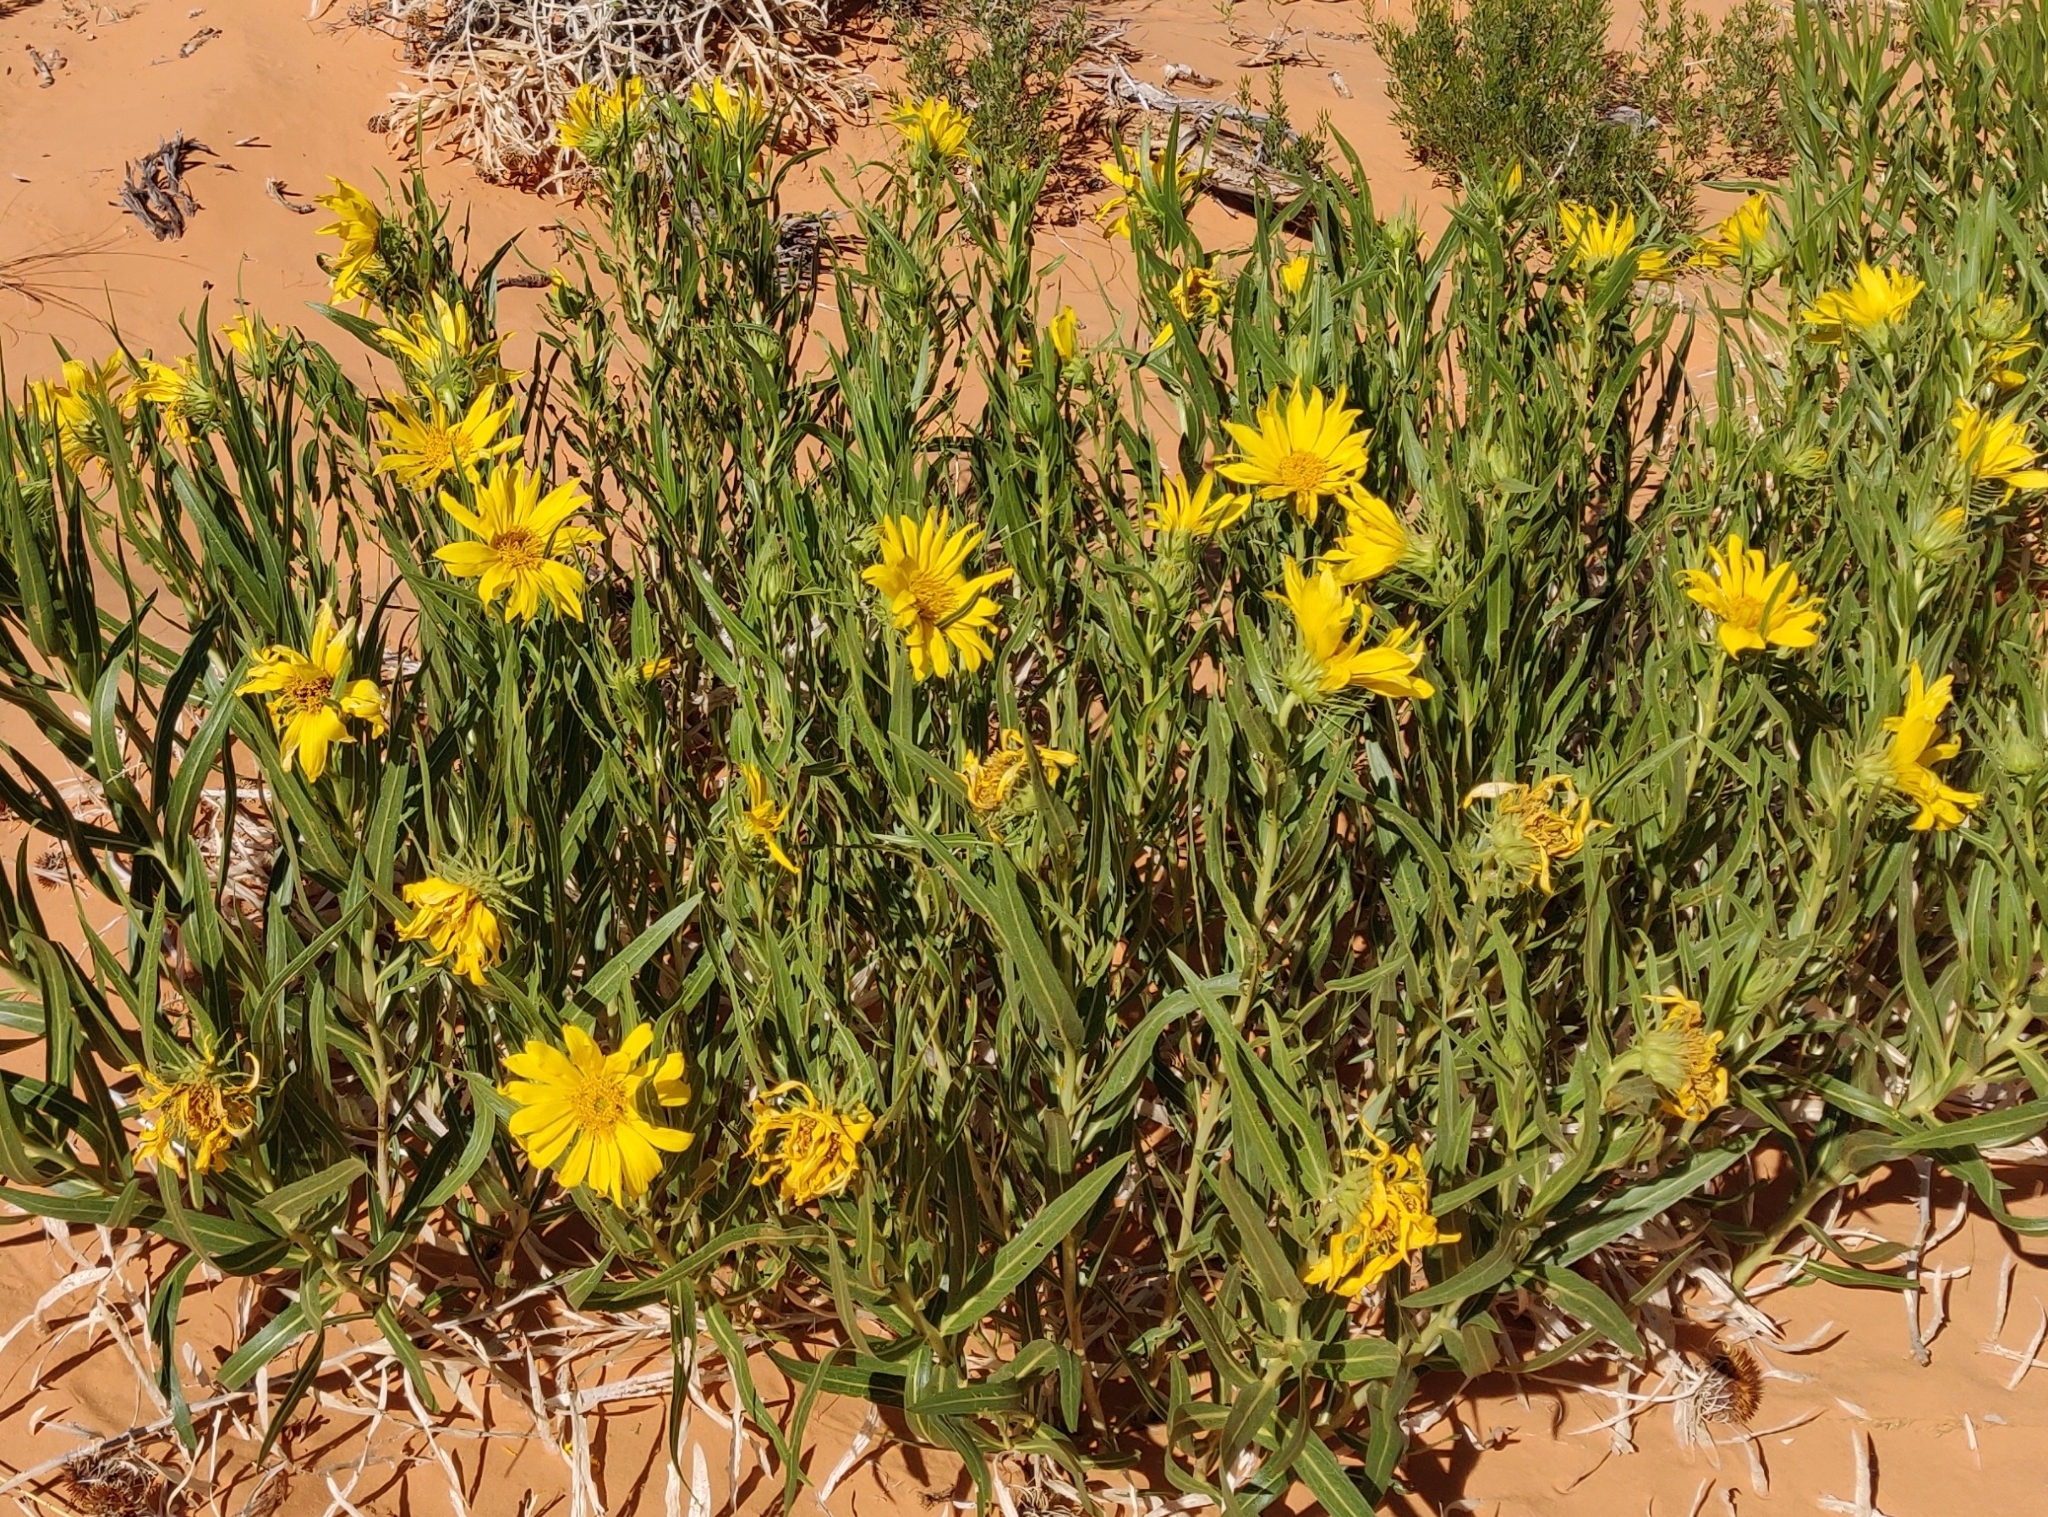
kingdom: Plantae
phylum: Tracheophyta
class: Magnoliopsida
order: Asterales
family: Asteraceae
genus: Scabrethia
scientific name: Scabrethia scabra
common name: Rough mules's-ears
